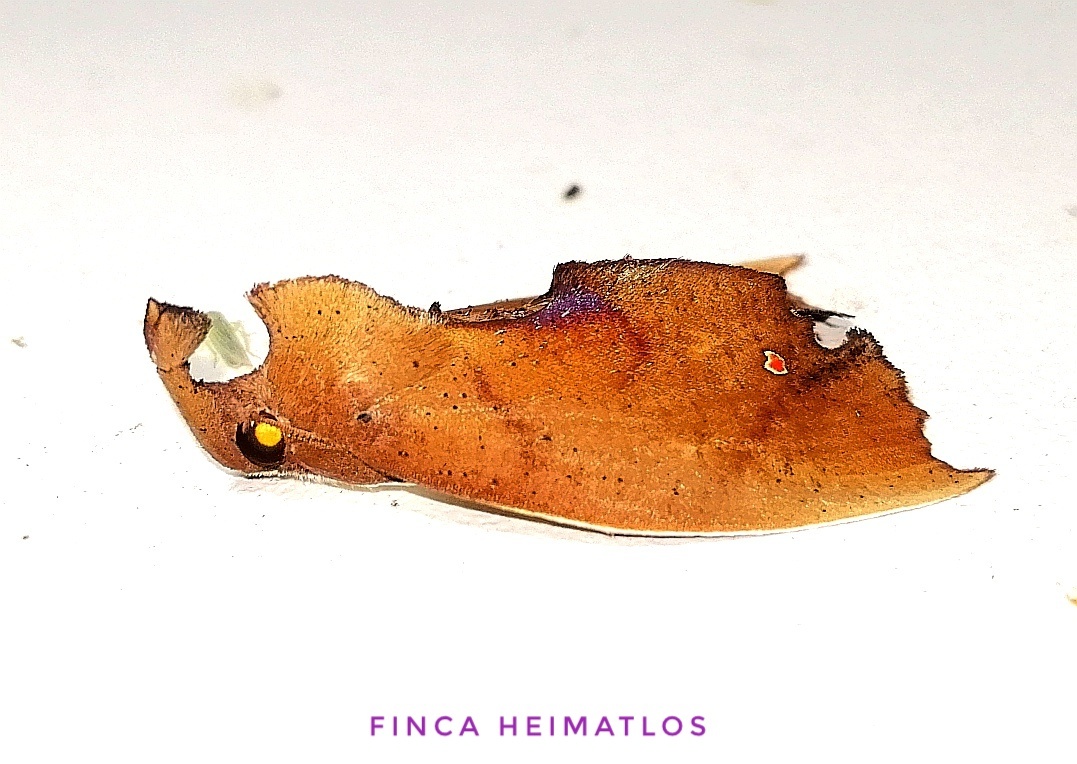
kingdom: Animalia
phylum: Arthropoda
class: Insecta
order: Lepidoptera
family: Erebidae
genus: Goniapteryx
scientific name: Goniapteryx servia
